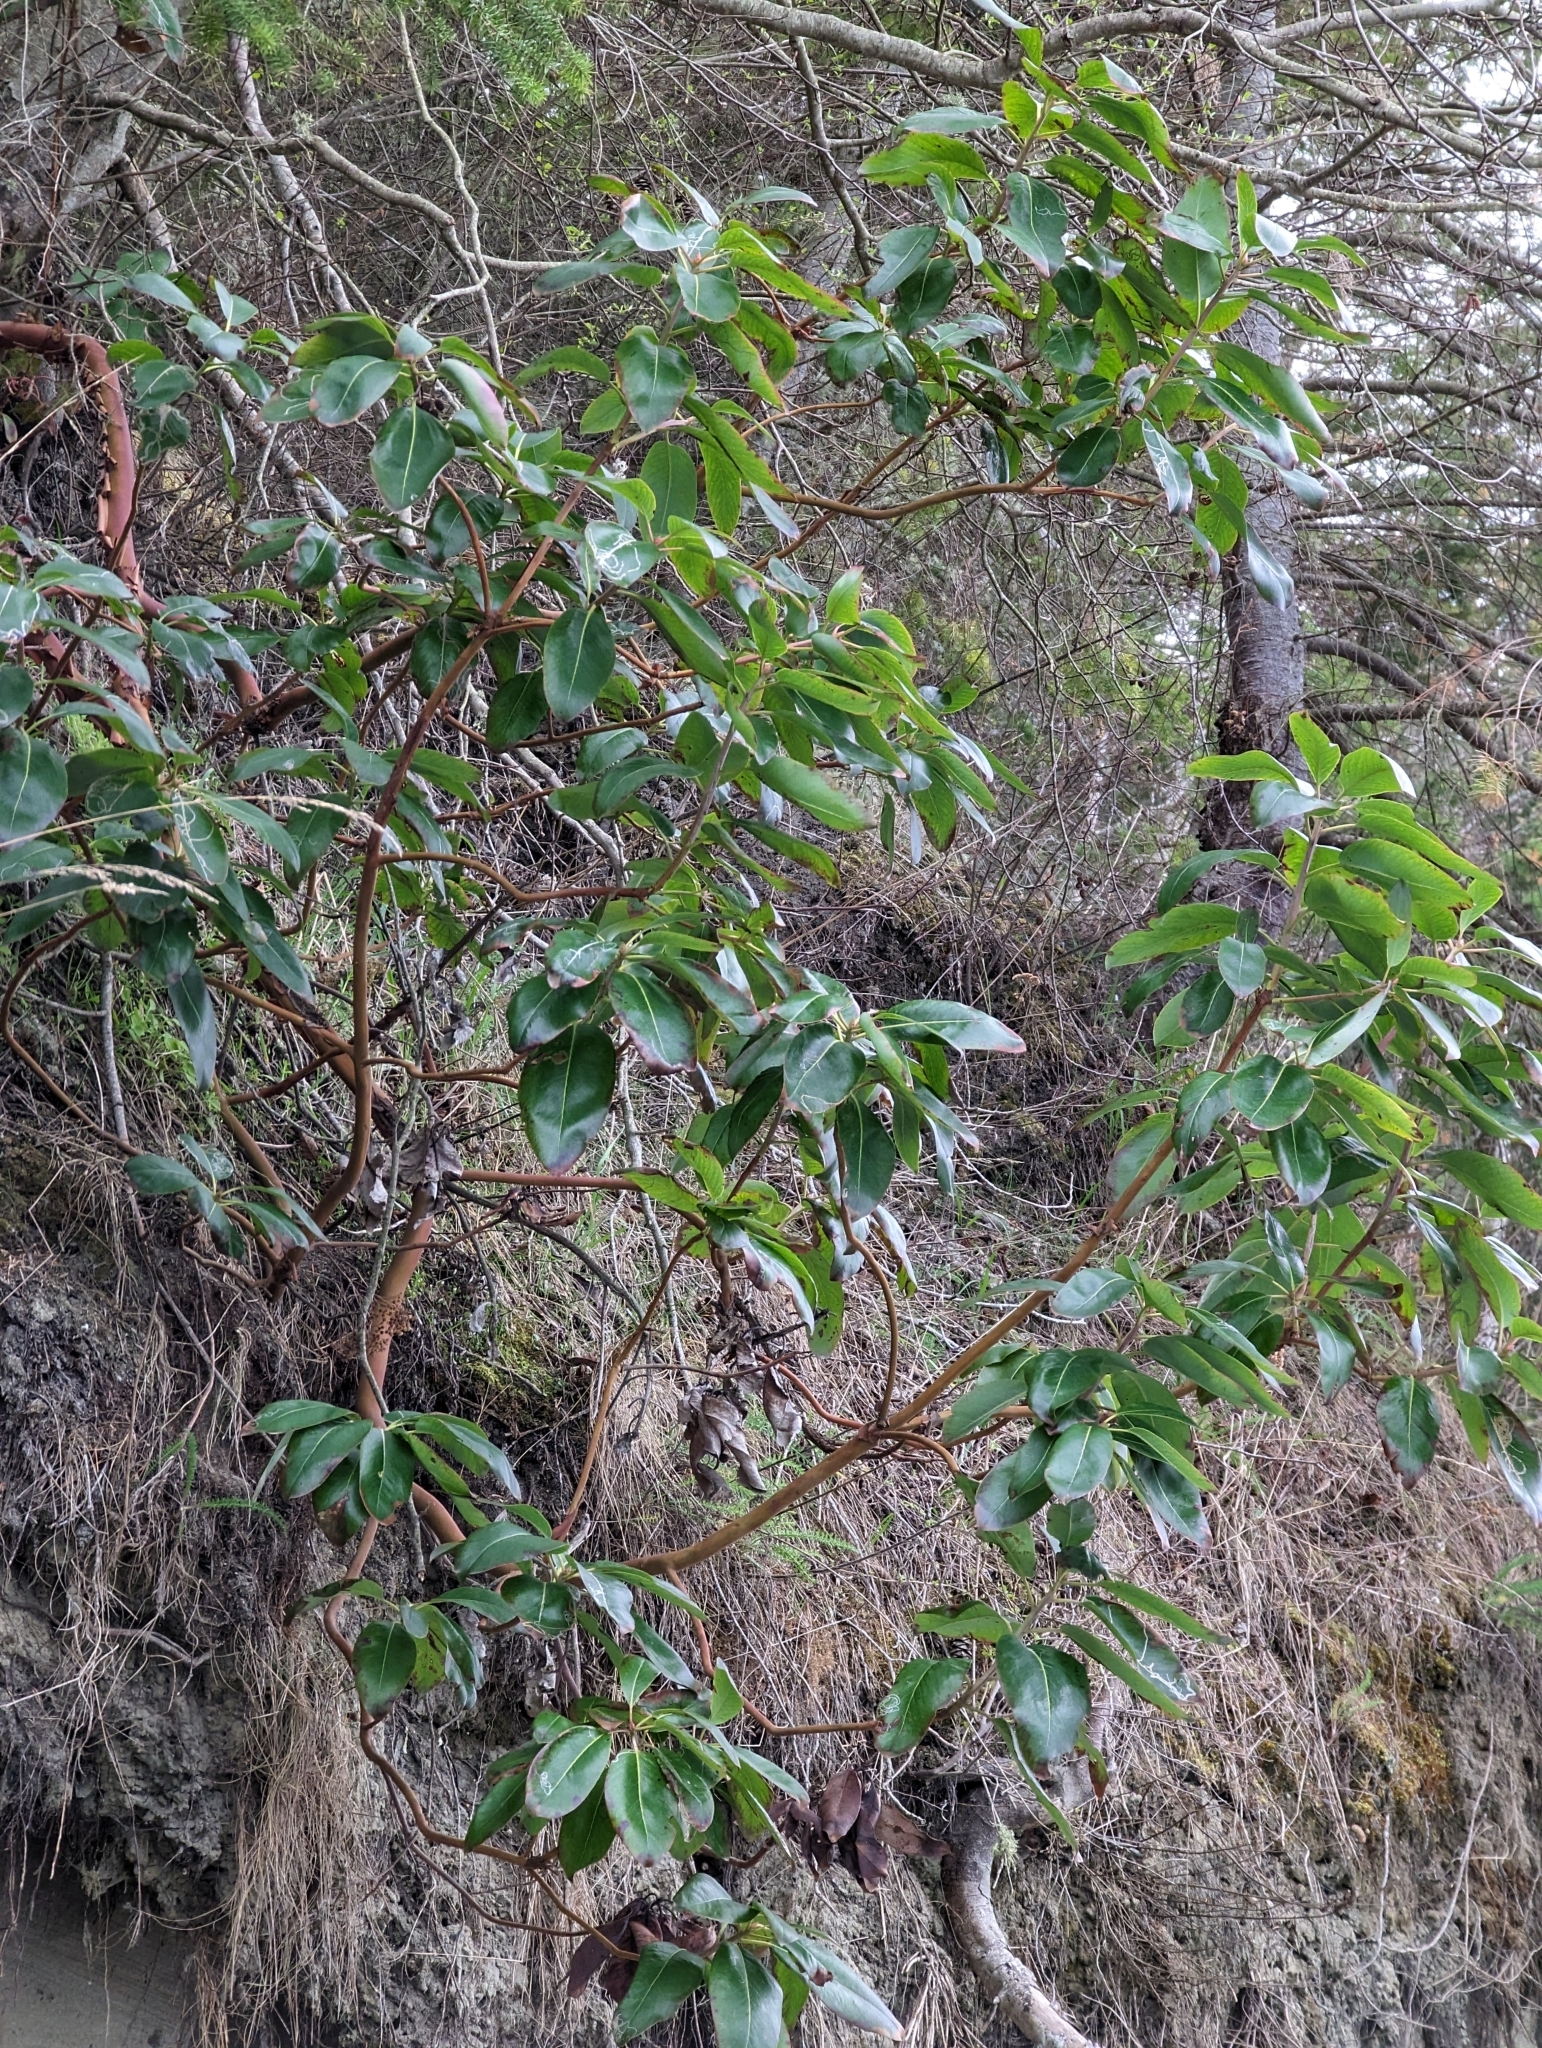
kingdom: Plantae
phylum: Tracheophyta
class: Magnoliopsida
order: Ericales
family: Ericaceae
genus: Arbutus
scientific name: Arbutus menziesii
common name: Pacific madrone
